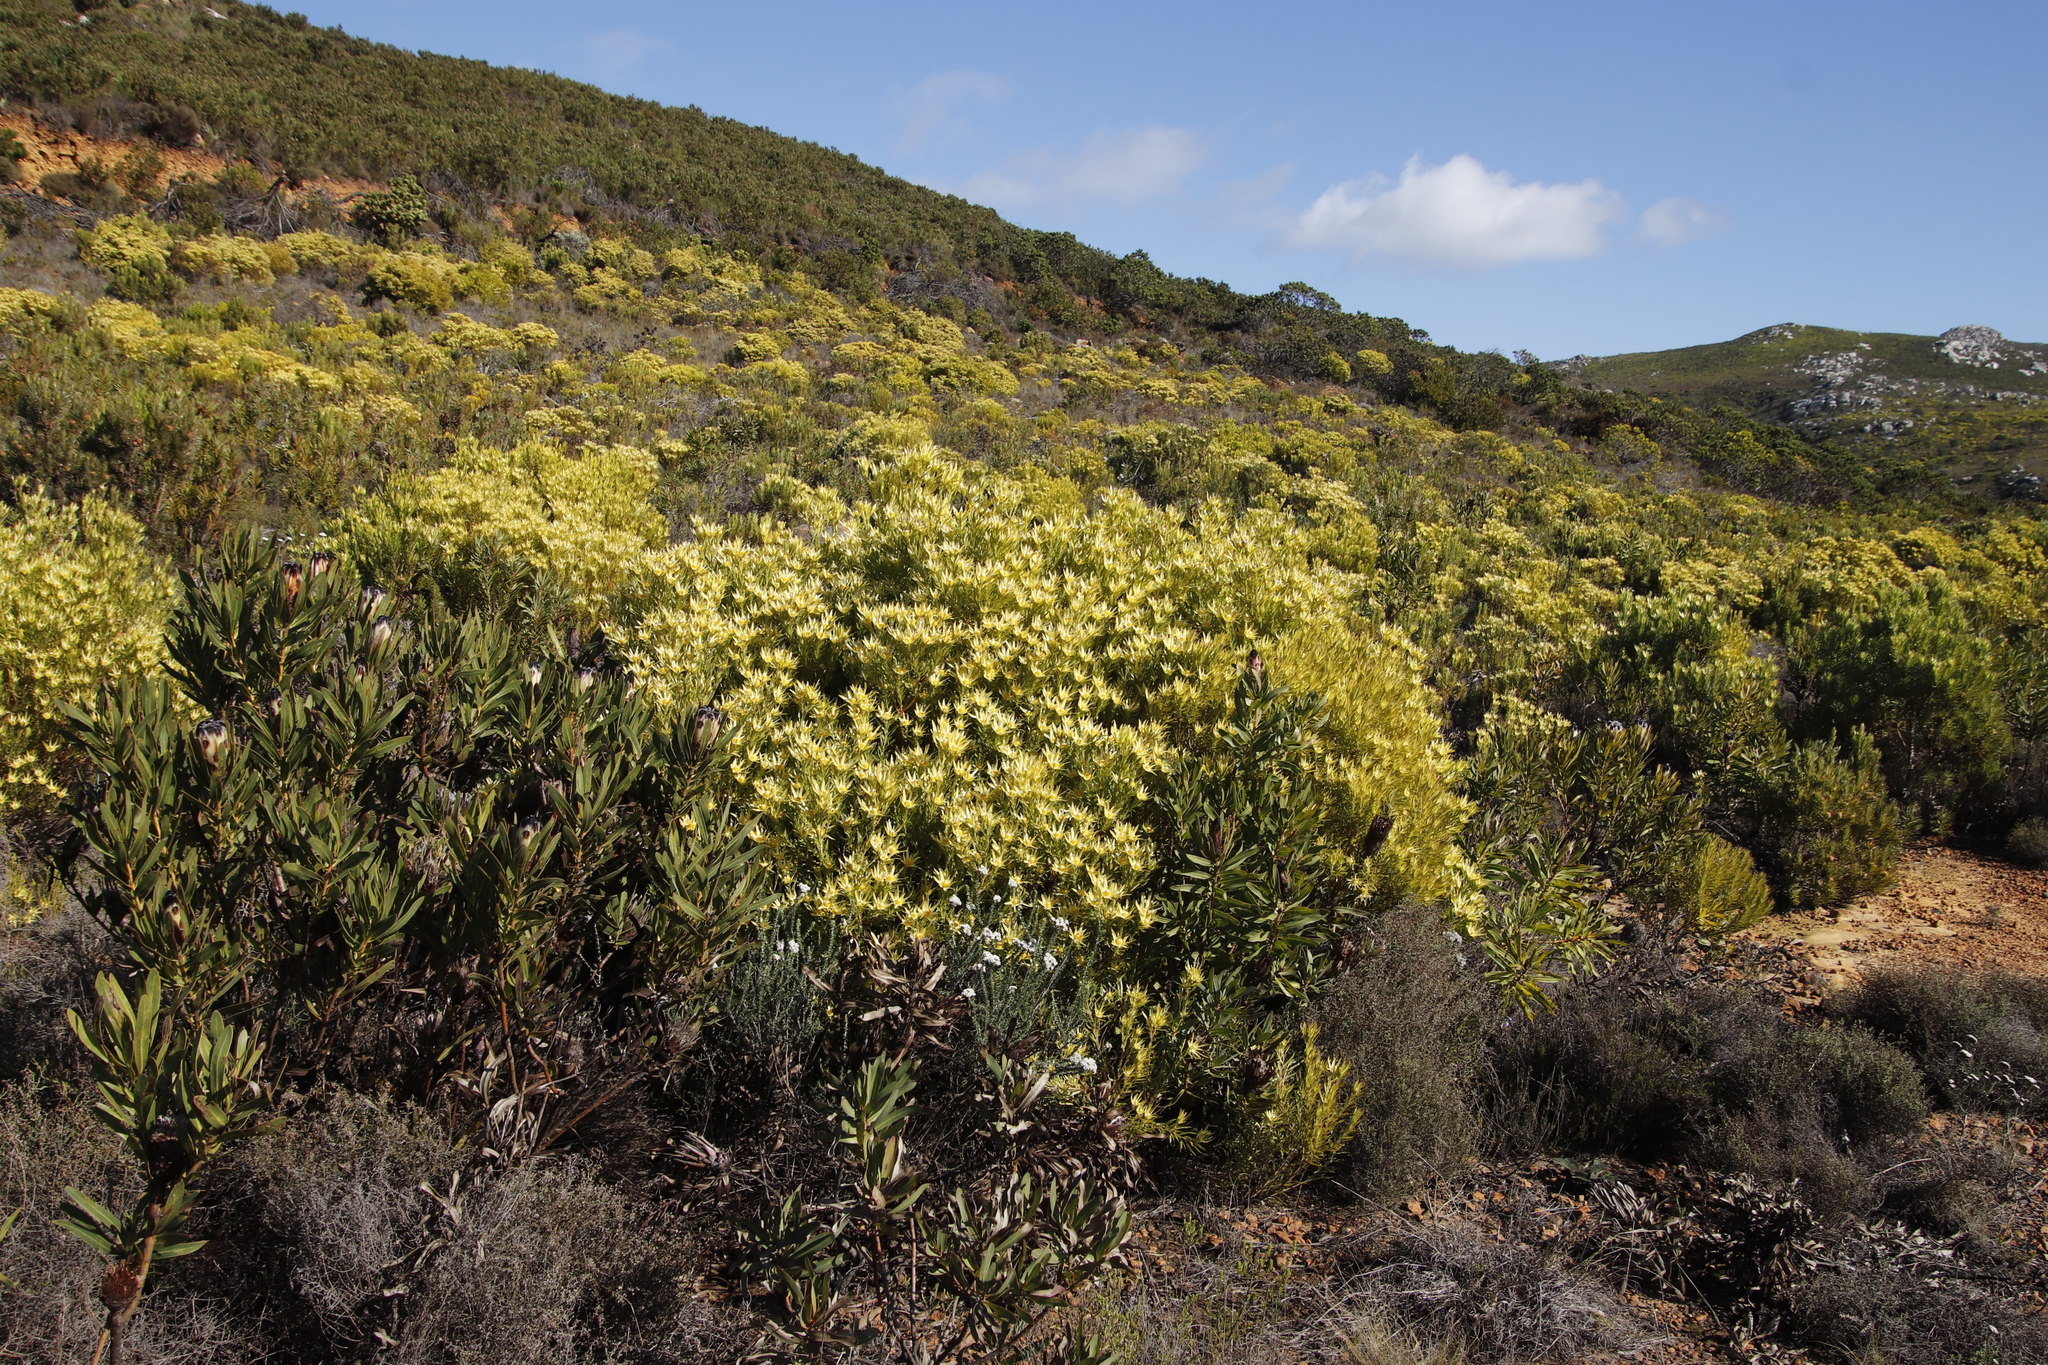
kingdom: Plantae
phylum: Tracheophyta
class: Magnoliopsida
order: Proteales
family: Proteaceae
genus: Leucadendron
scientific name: Leucadendron xanthoconus
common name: Sickle-leaf conebush
